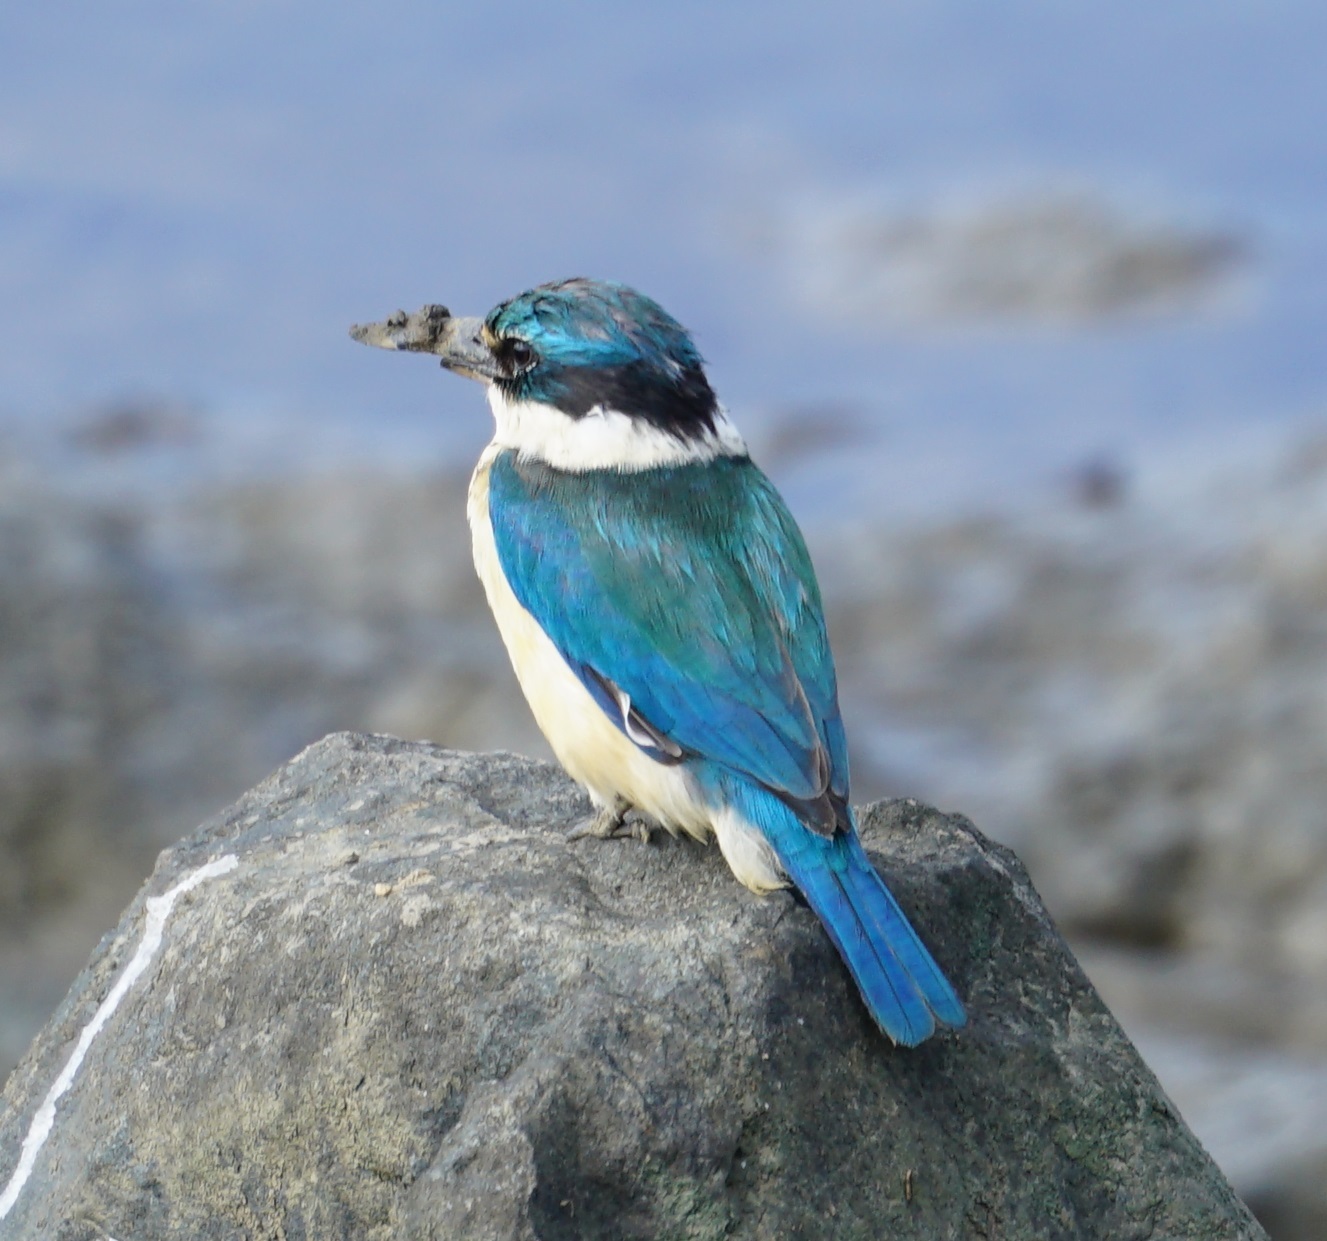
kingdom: Animalia
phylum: Chordata
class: Aves
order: Coraciiformes
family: Alcedinidae
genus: Todiramphus
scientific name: Todiramphus sanctus
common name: Sacred kingfisher
